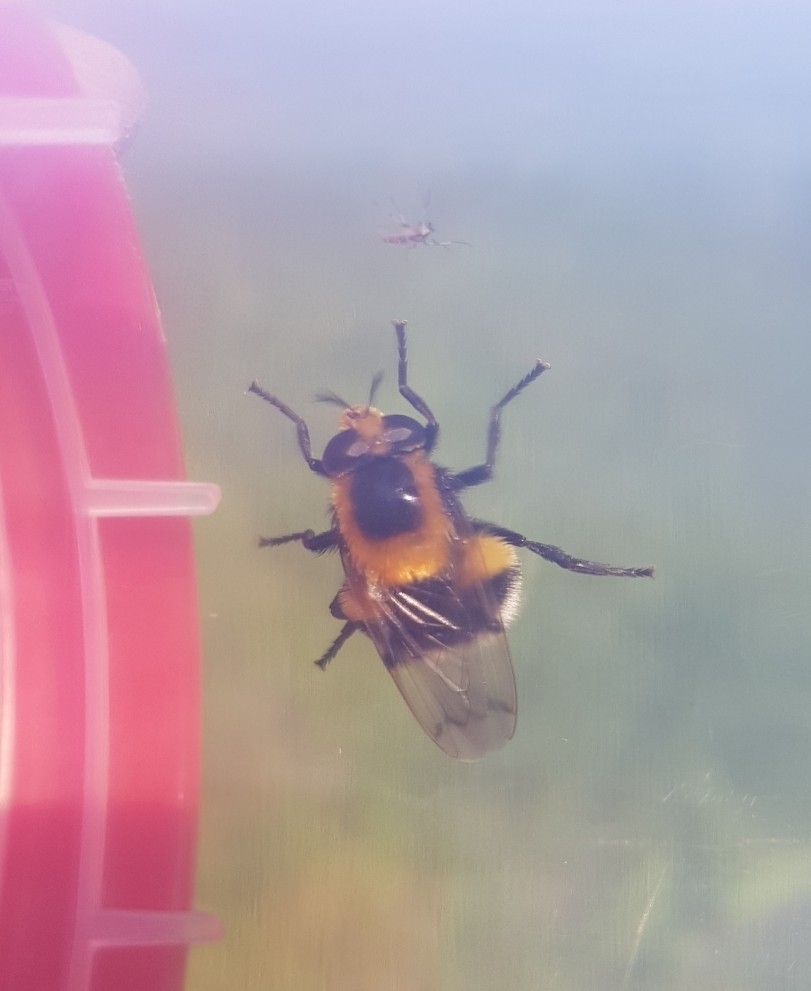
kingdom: Animalia
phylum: Arthropoda
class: Insecta
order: Diptera
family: Syrphidae
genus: Volucella
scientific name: Volucella bombylans
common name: Bumble bee hover fly
